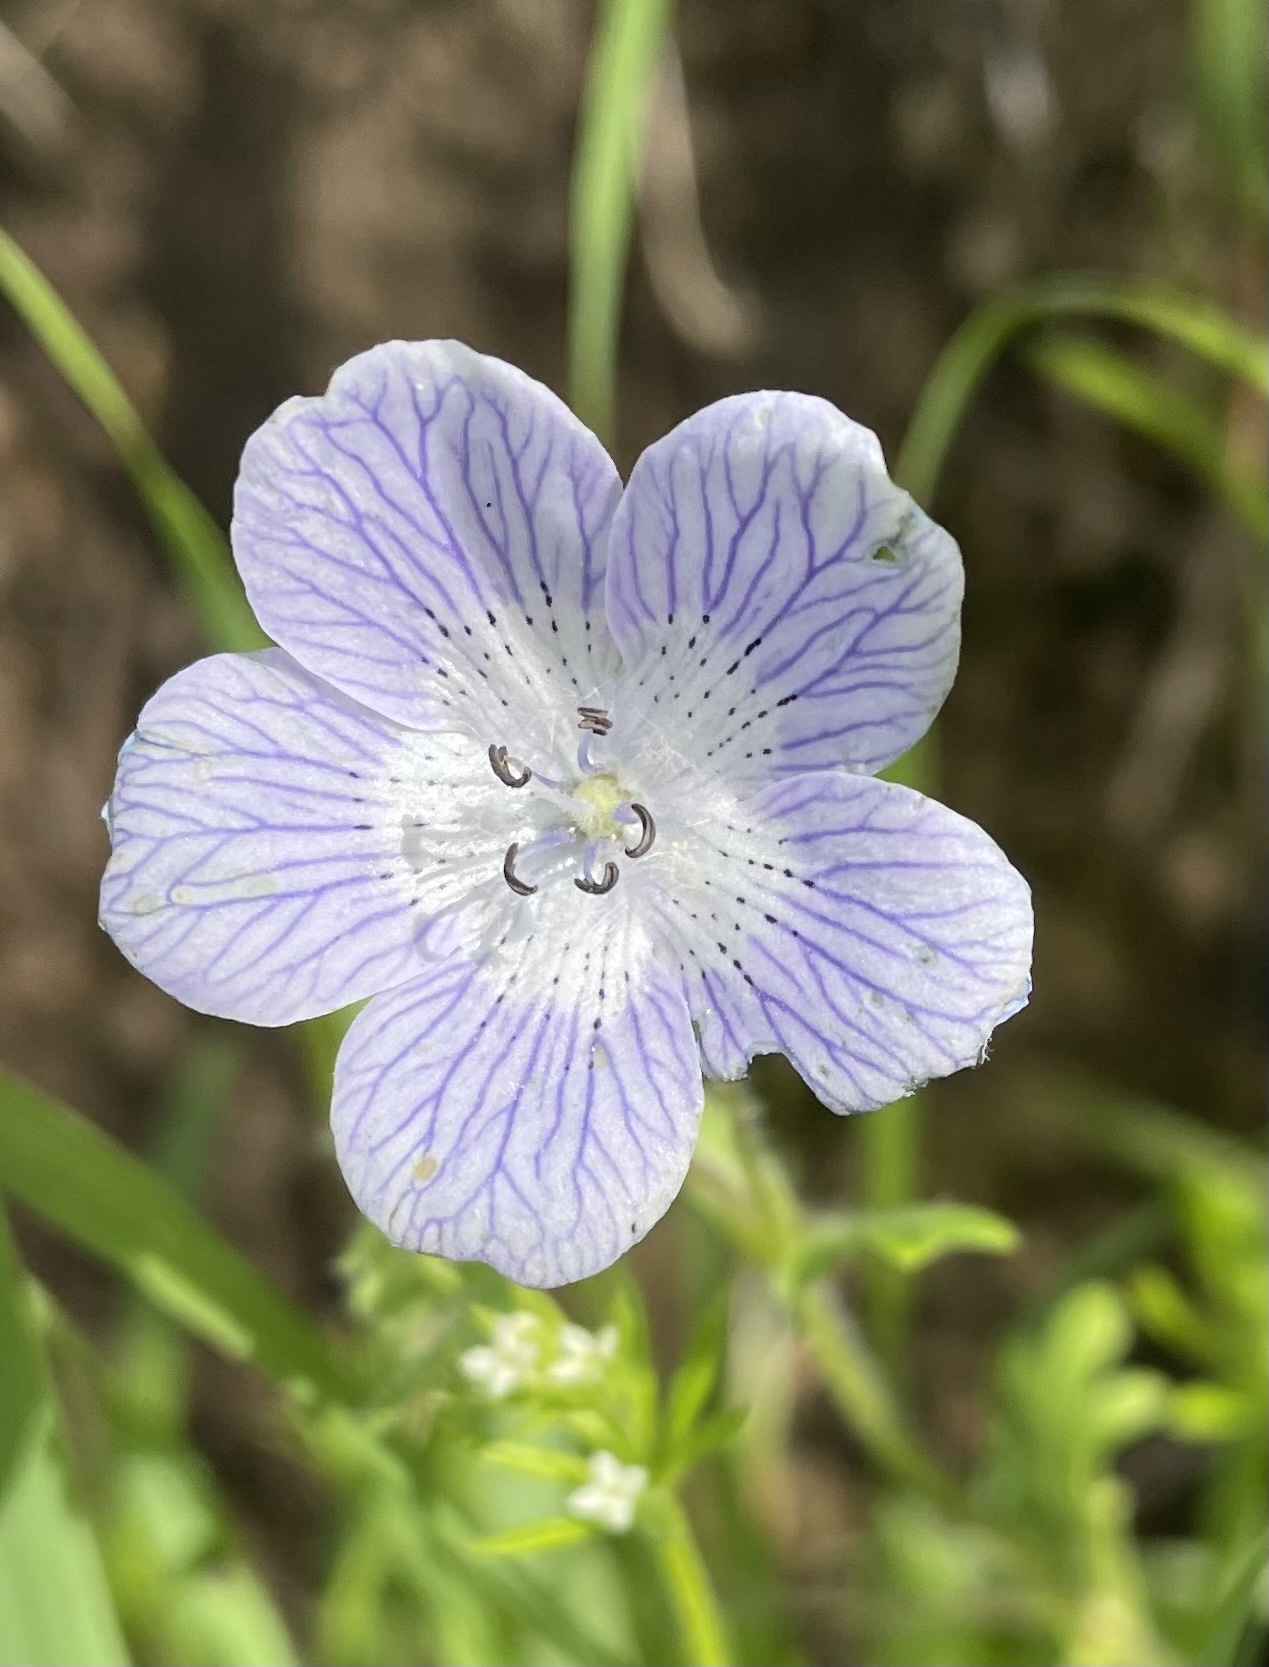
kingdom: Plantae
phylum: Tracheophyta
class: Magnoliopsida
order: Boraginales
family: Hydrophyllaceae
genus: Nemophila
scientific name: Nemophila menziesii
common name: Baby's-blue-eyes
